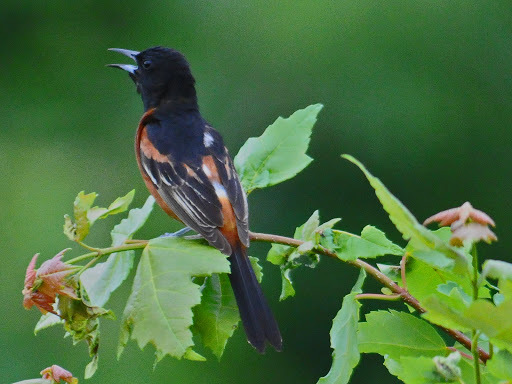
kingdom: Animalia
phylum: Chordata
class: Aves
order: Passeriformes
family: Icteridae
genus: Icterus
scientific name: Icterus spurius
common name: Orchard oriole
